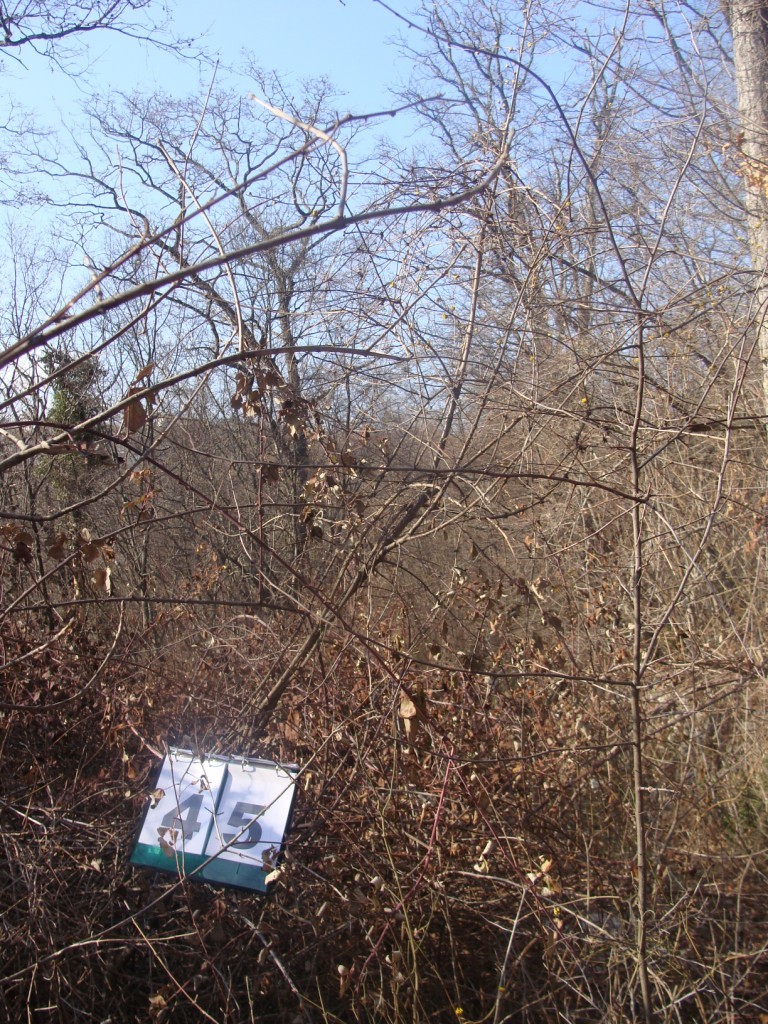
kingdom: Plantae
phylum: Tracheophyta
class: Magnoliopsida
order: Cornales
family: Cornaceae
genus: Cornus
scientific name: Cornus mas
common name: Cornelian-cherry
